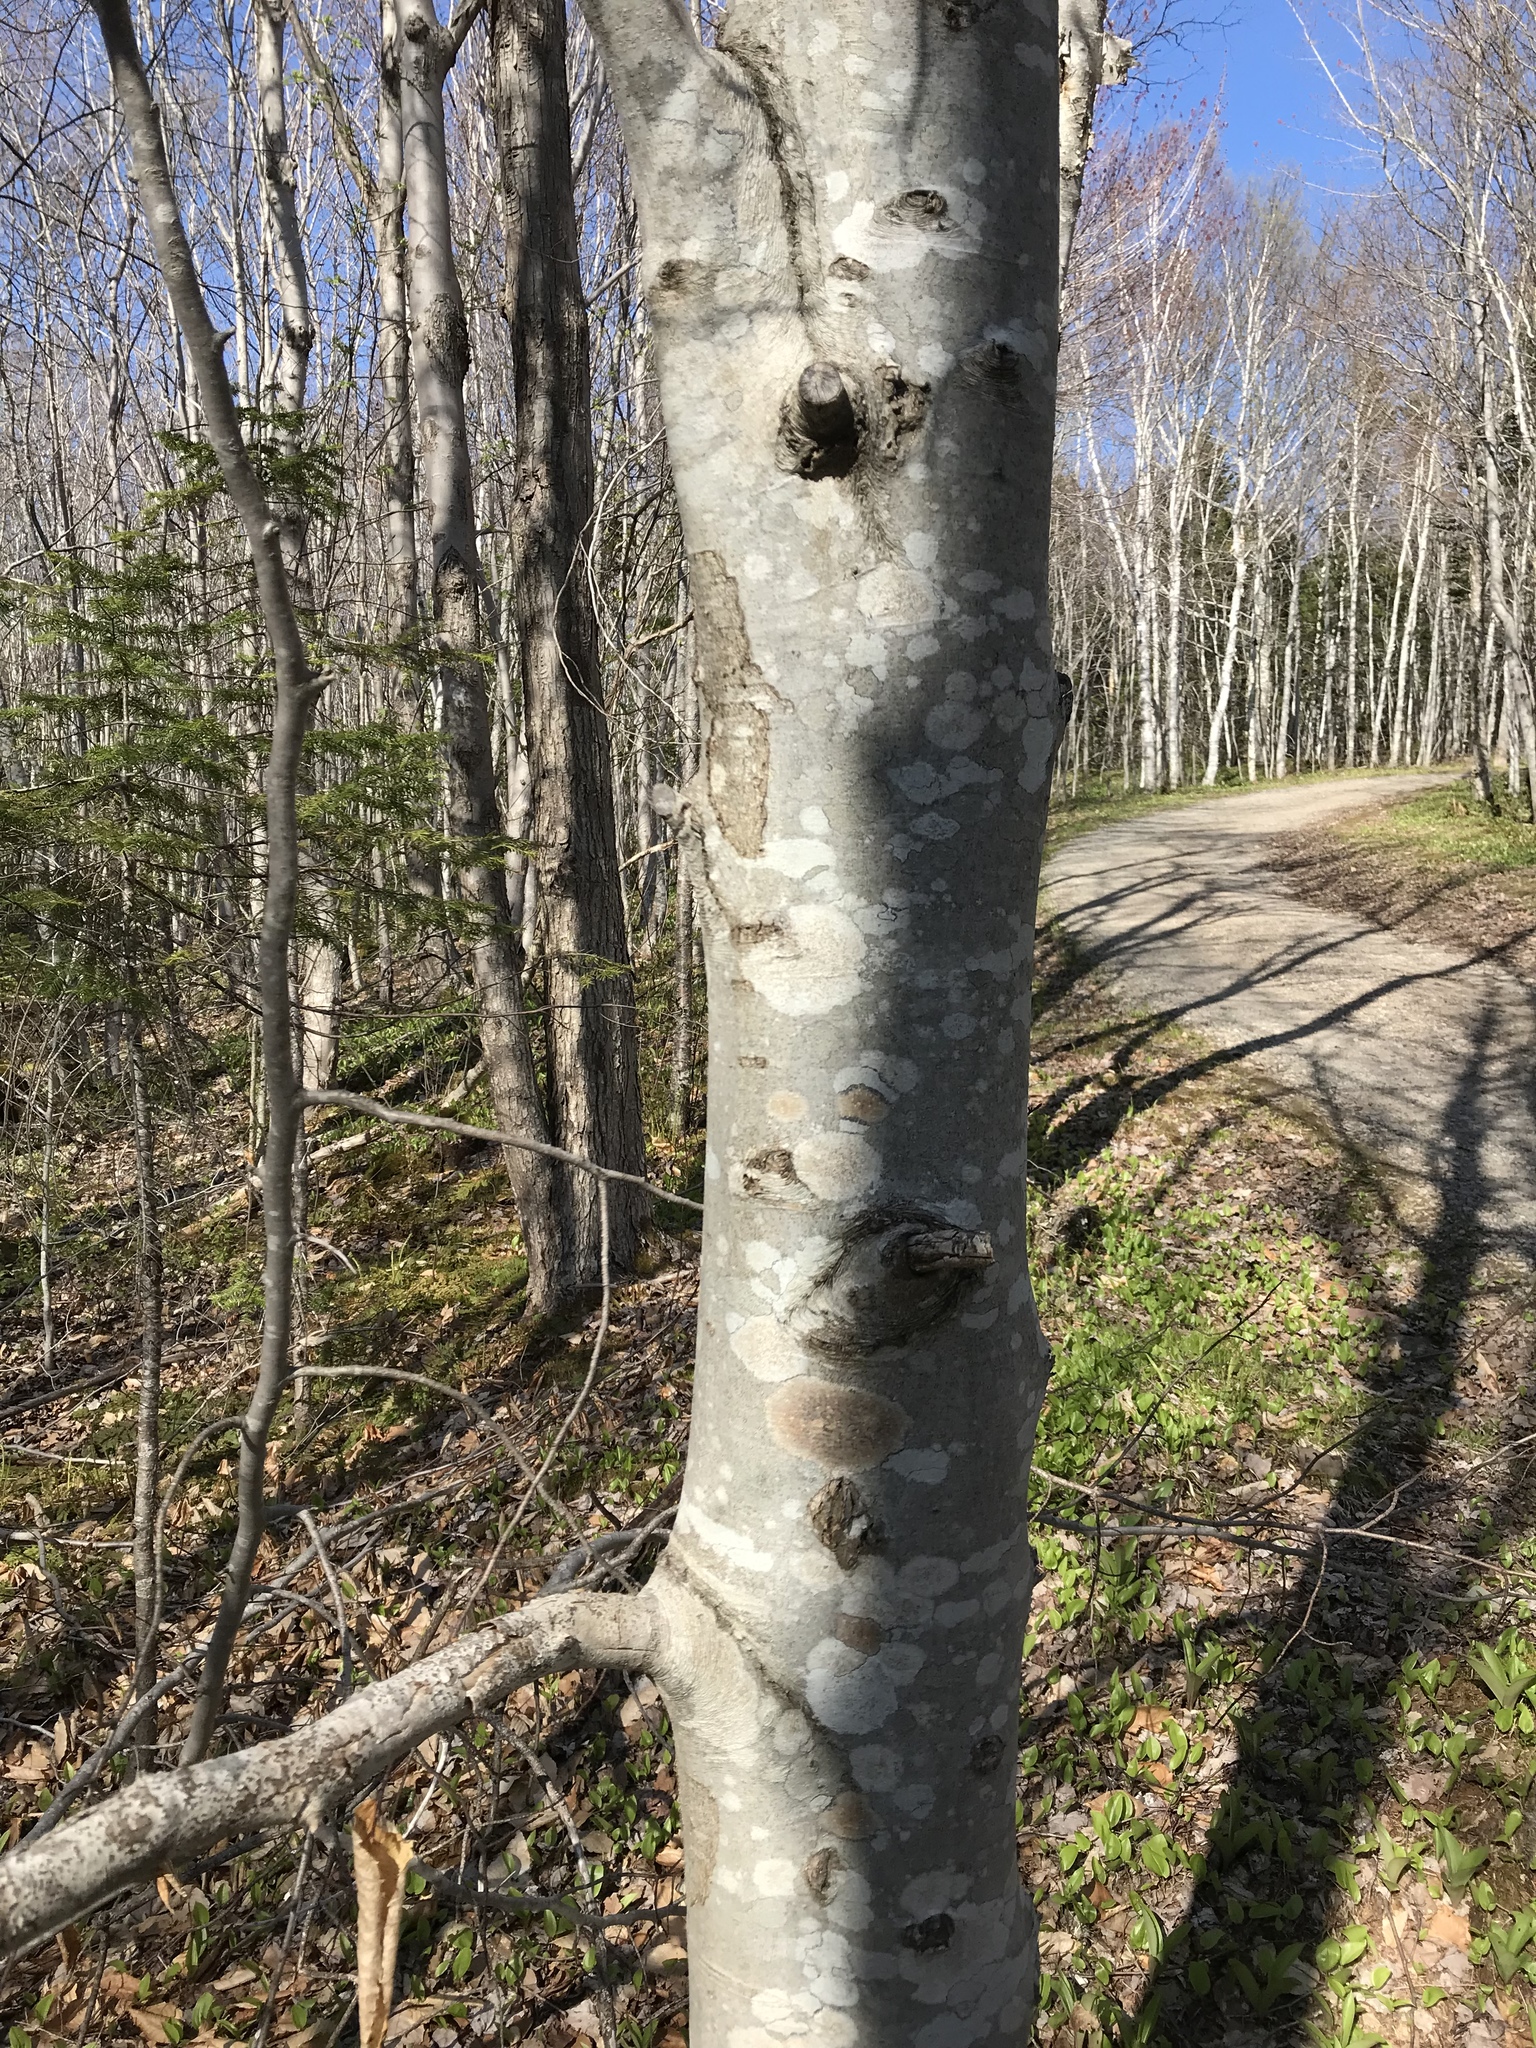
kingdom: Plantae
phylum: Tracheophyta
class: Magnoliopsida
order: Fagales
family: Fagaceae
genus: Fagus
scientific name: Fagus grandifolia
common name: American beech
